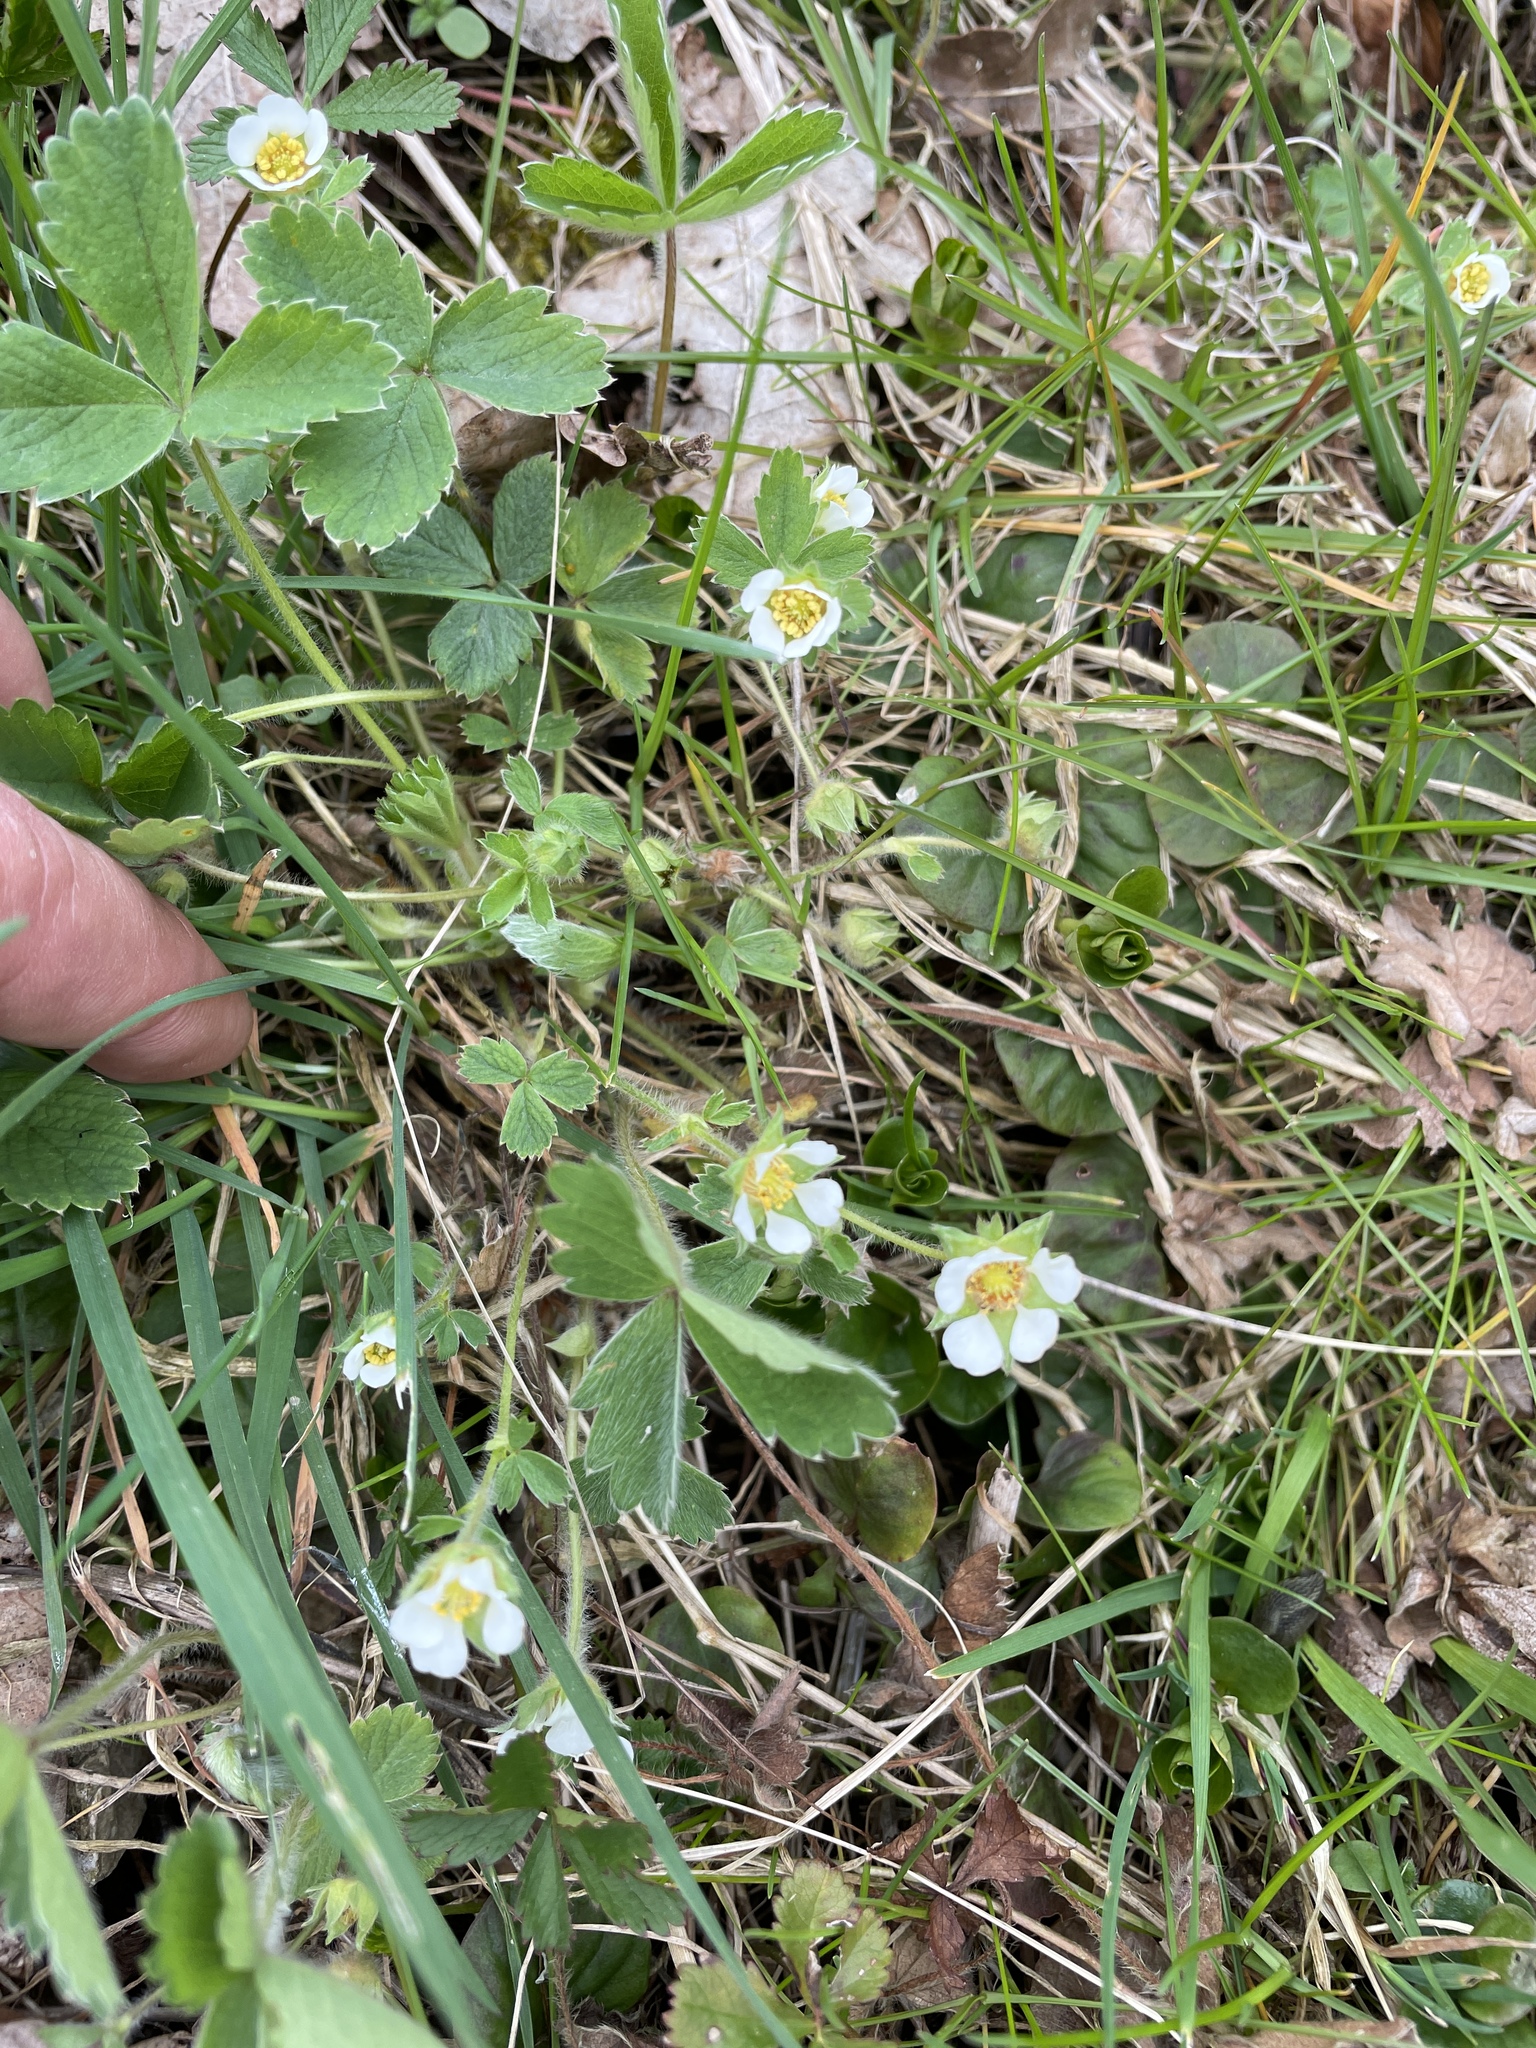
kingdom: Plantae
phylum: Tracheophyta
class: Magnoliopsida
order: Rosales
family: Rosaceae
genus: Potentilla
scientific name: Potentilla sterilis
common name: Barren strawberry
